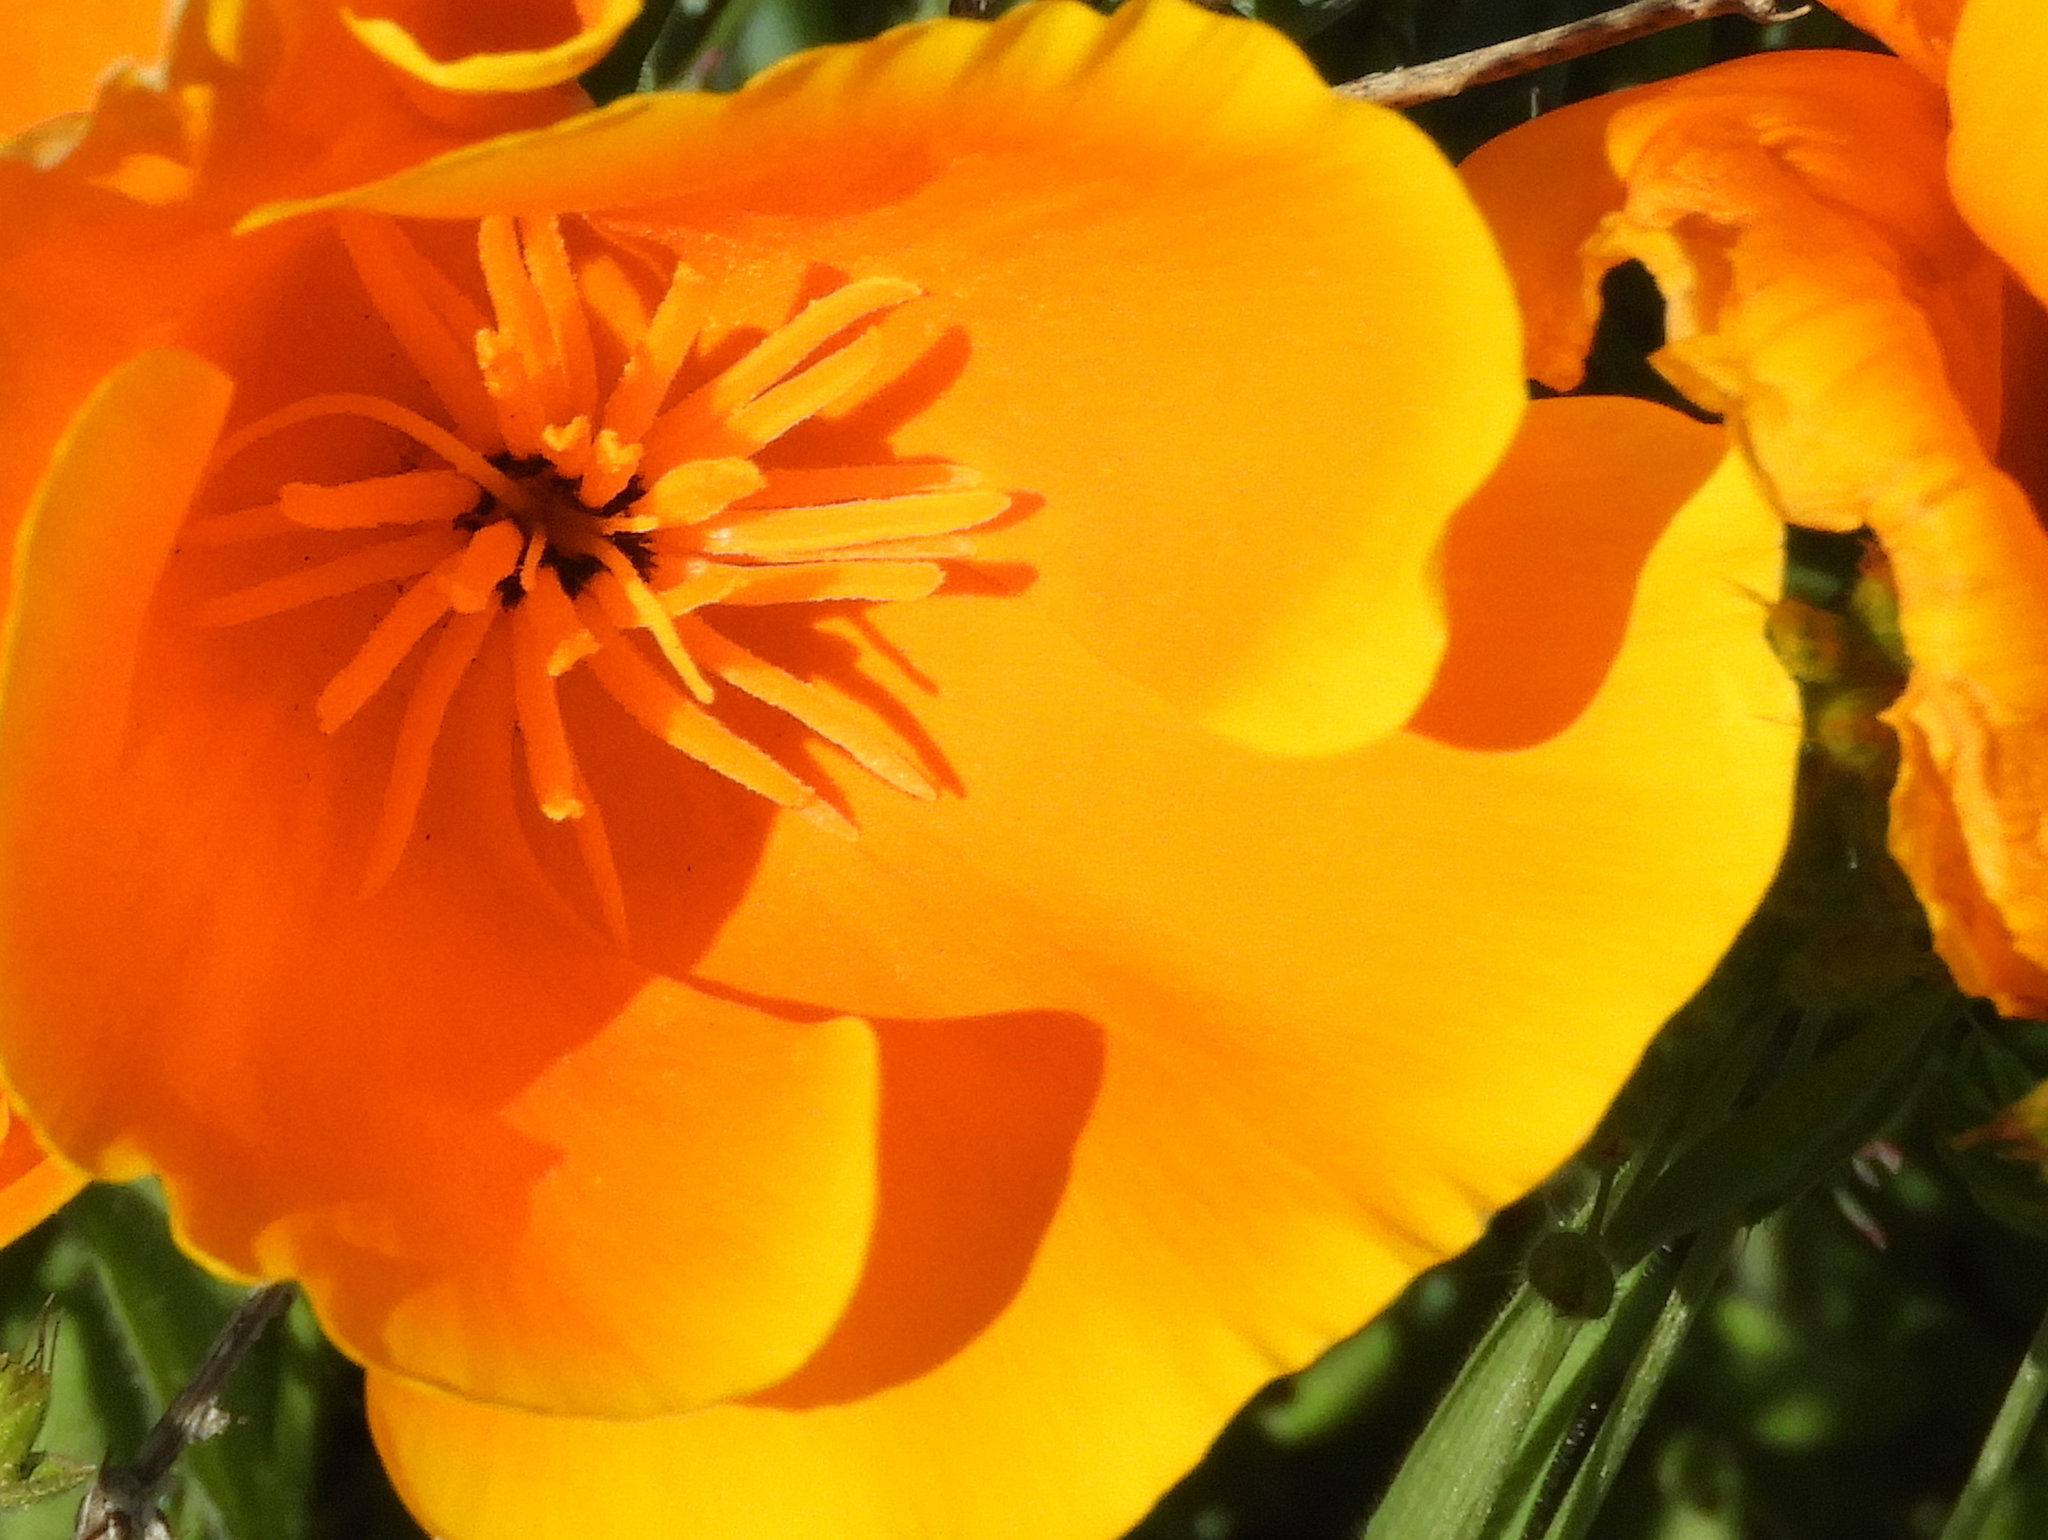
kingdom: Plantae
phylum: Tracheophyta
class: Magnoliopsida
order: Ranunculales
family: Papaveraceae
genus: Eschscholzia
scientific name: Eschscholzia californica
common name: California poppy
